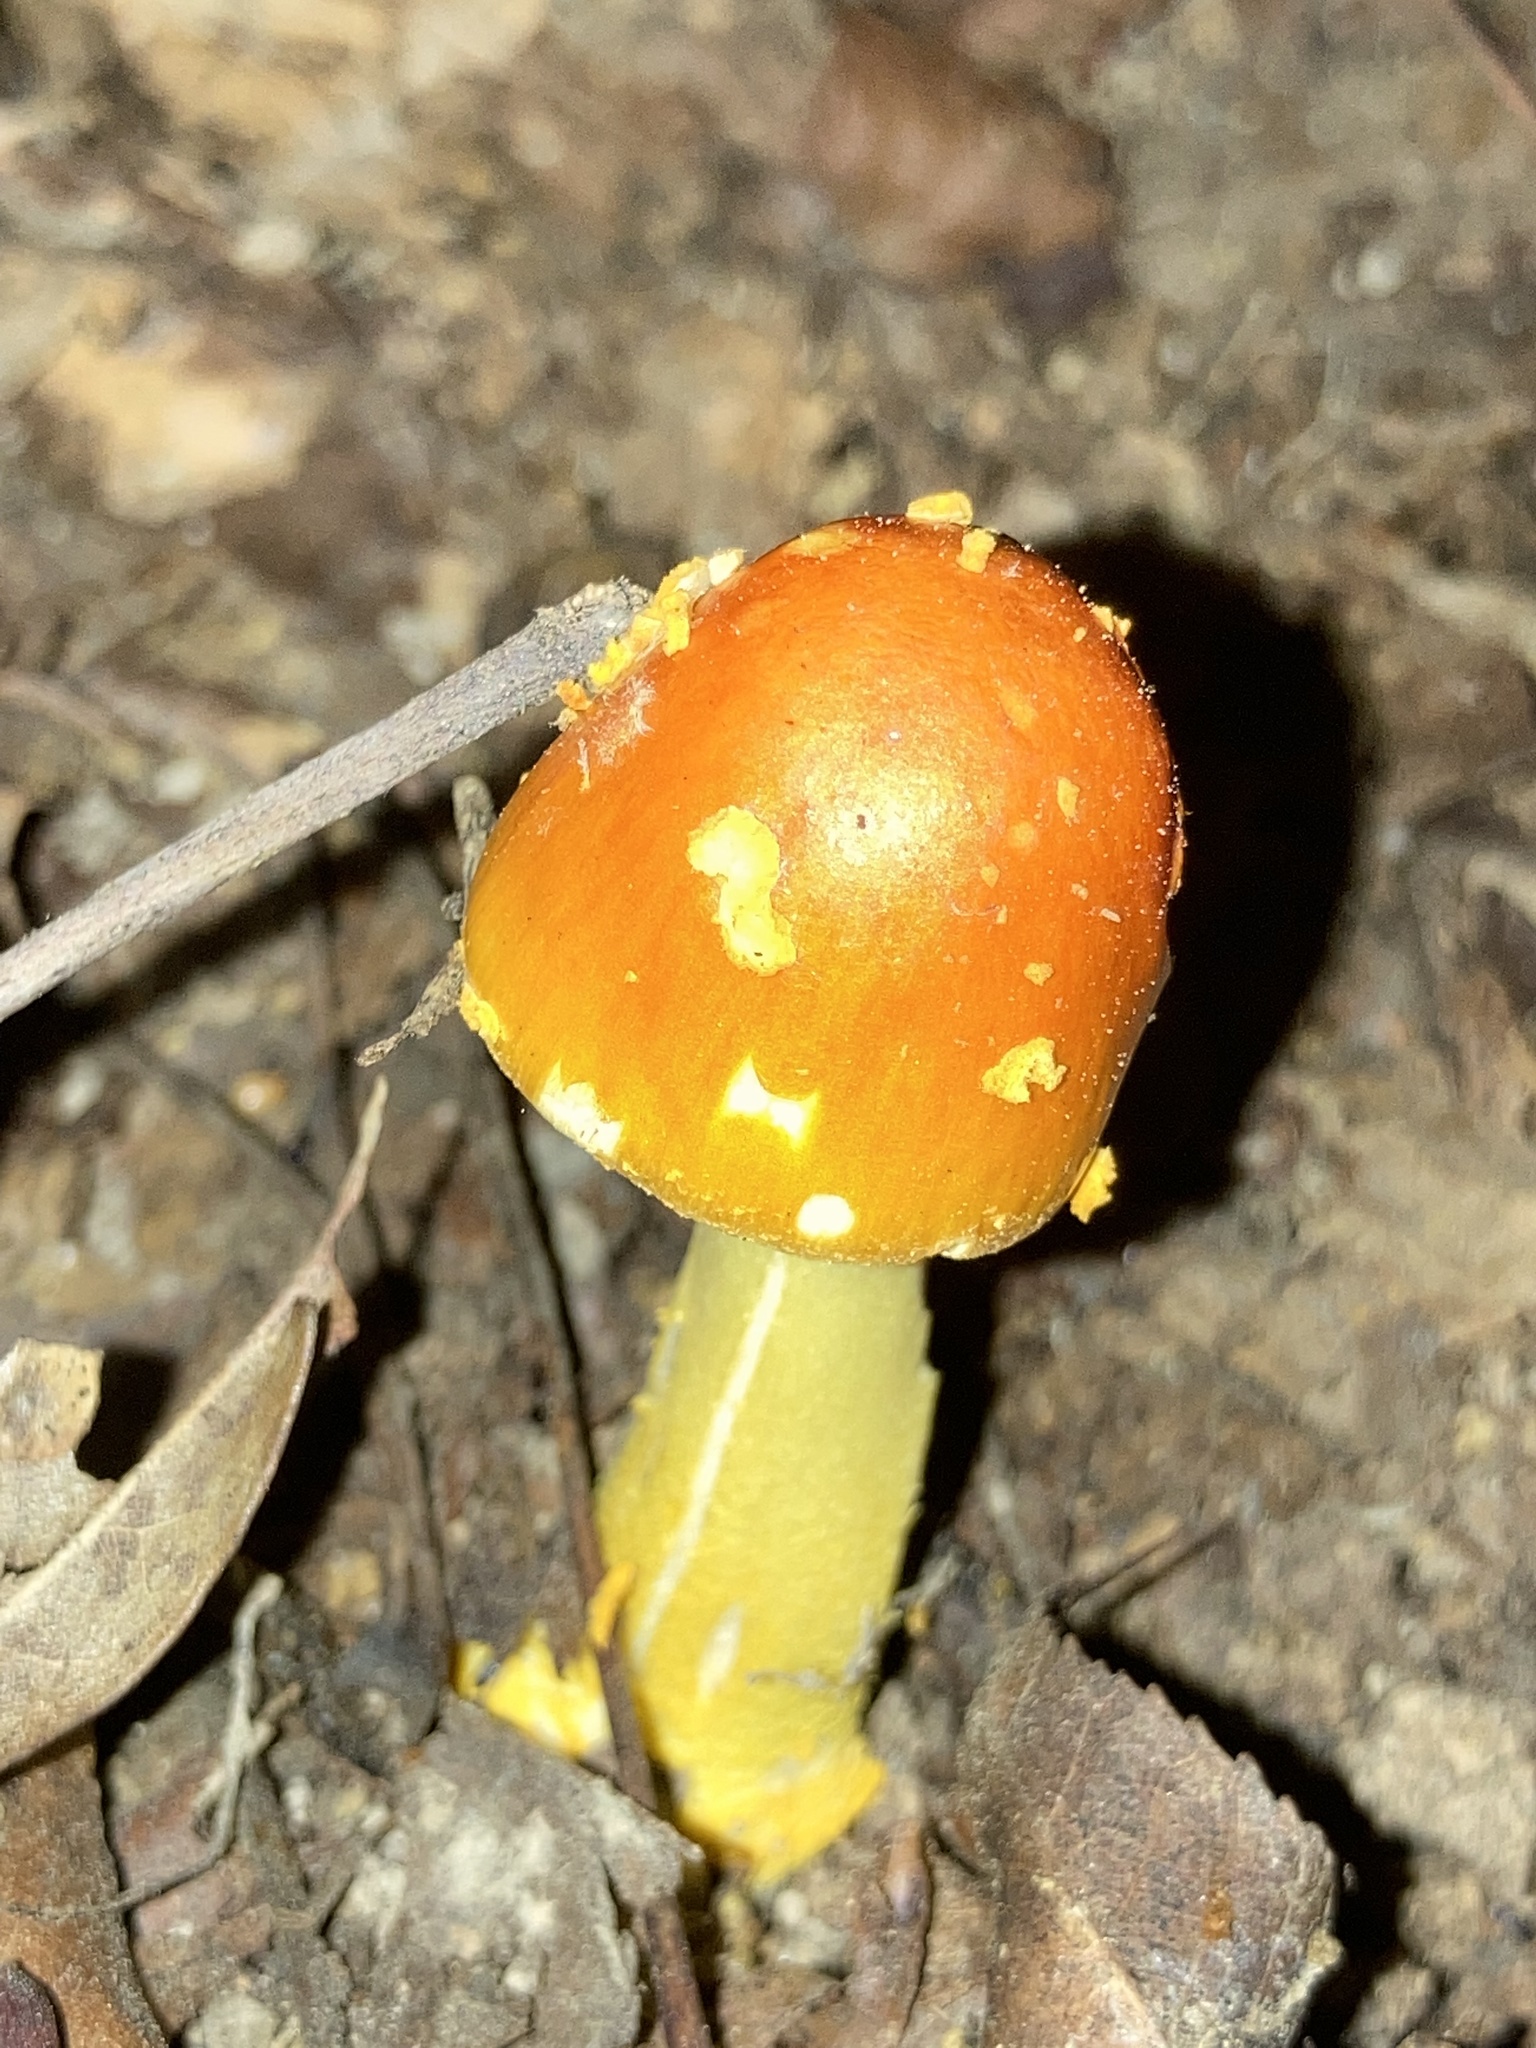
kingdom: Fungi
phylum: Basidiomycota
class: Agaricomycetes
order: Agaricales
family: Amanitaceae
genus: Amanita
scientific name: Amanita flavoconia
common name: Yellow patches
